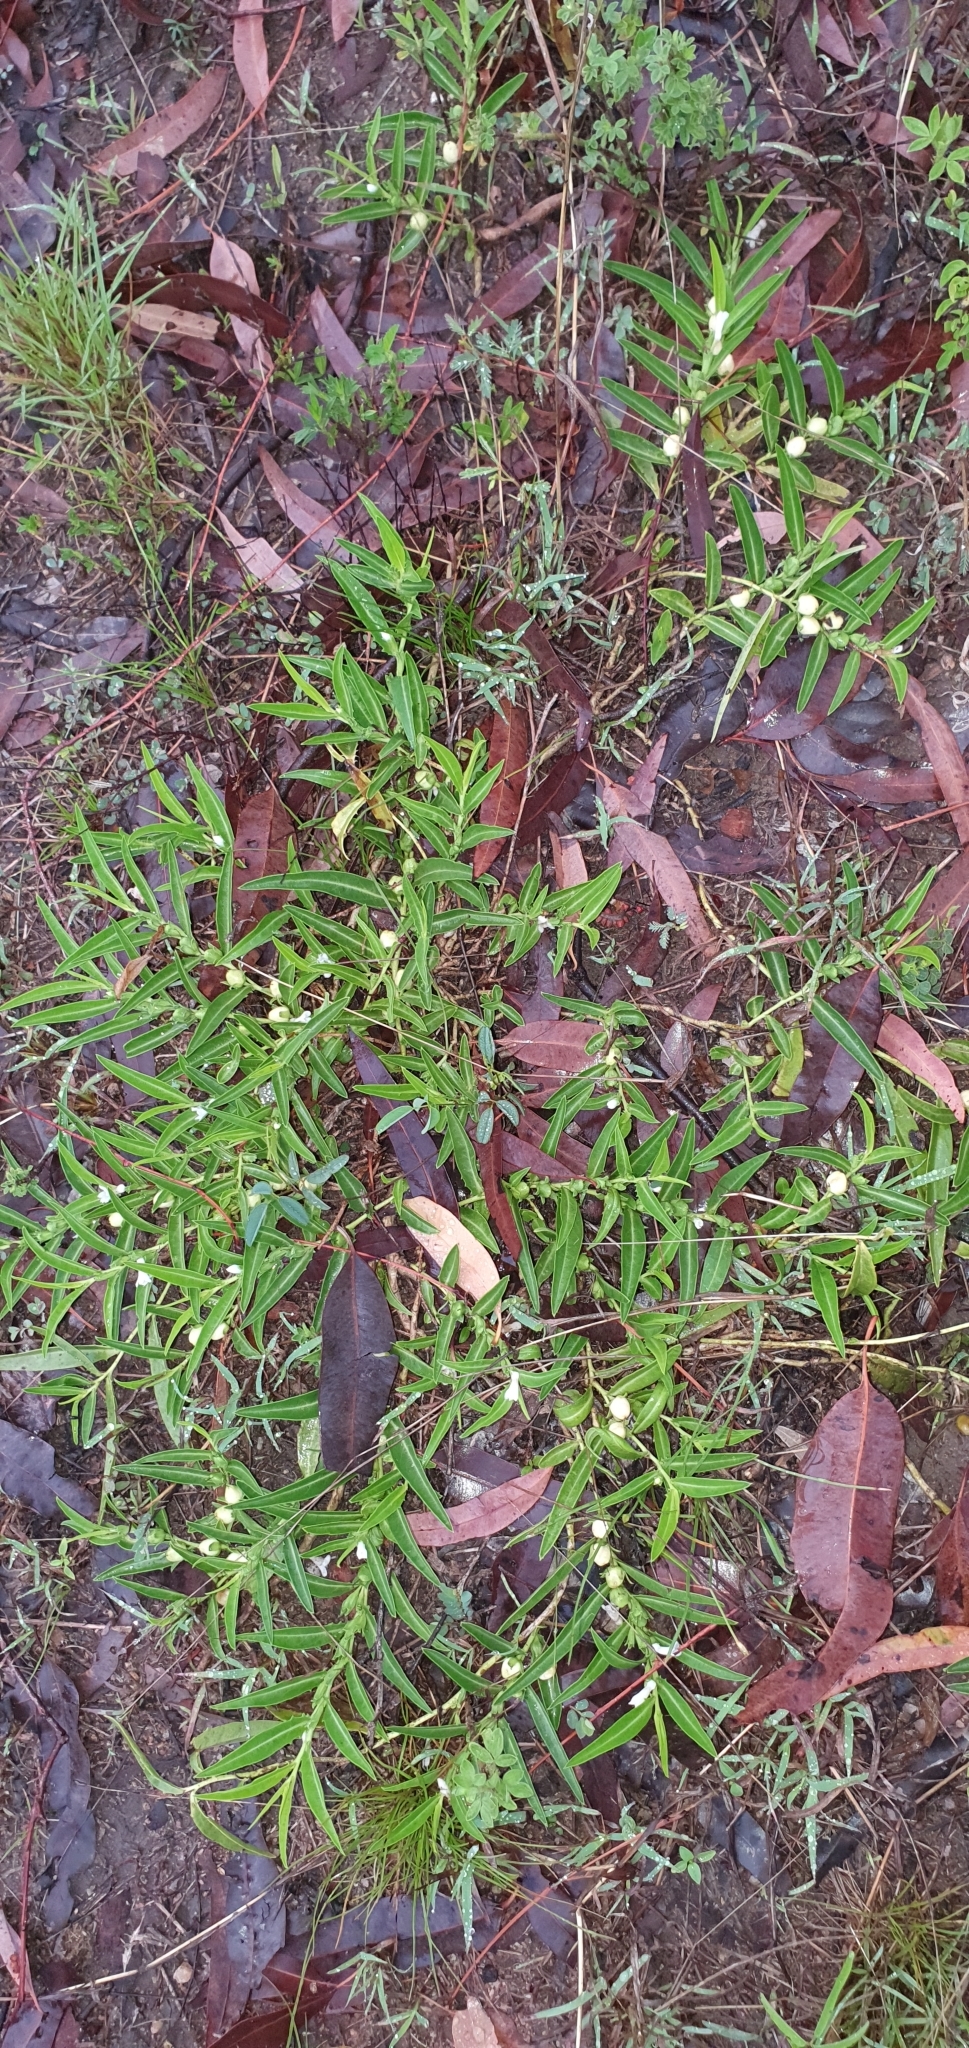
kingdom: Plantae
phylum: Tracheophyta
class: Magnoliopsida
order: Lamiales
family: Scrophulariaceae
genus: Eremophila
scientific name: Eremophila debilis
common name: Winter-apple
